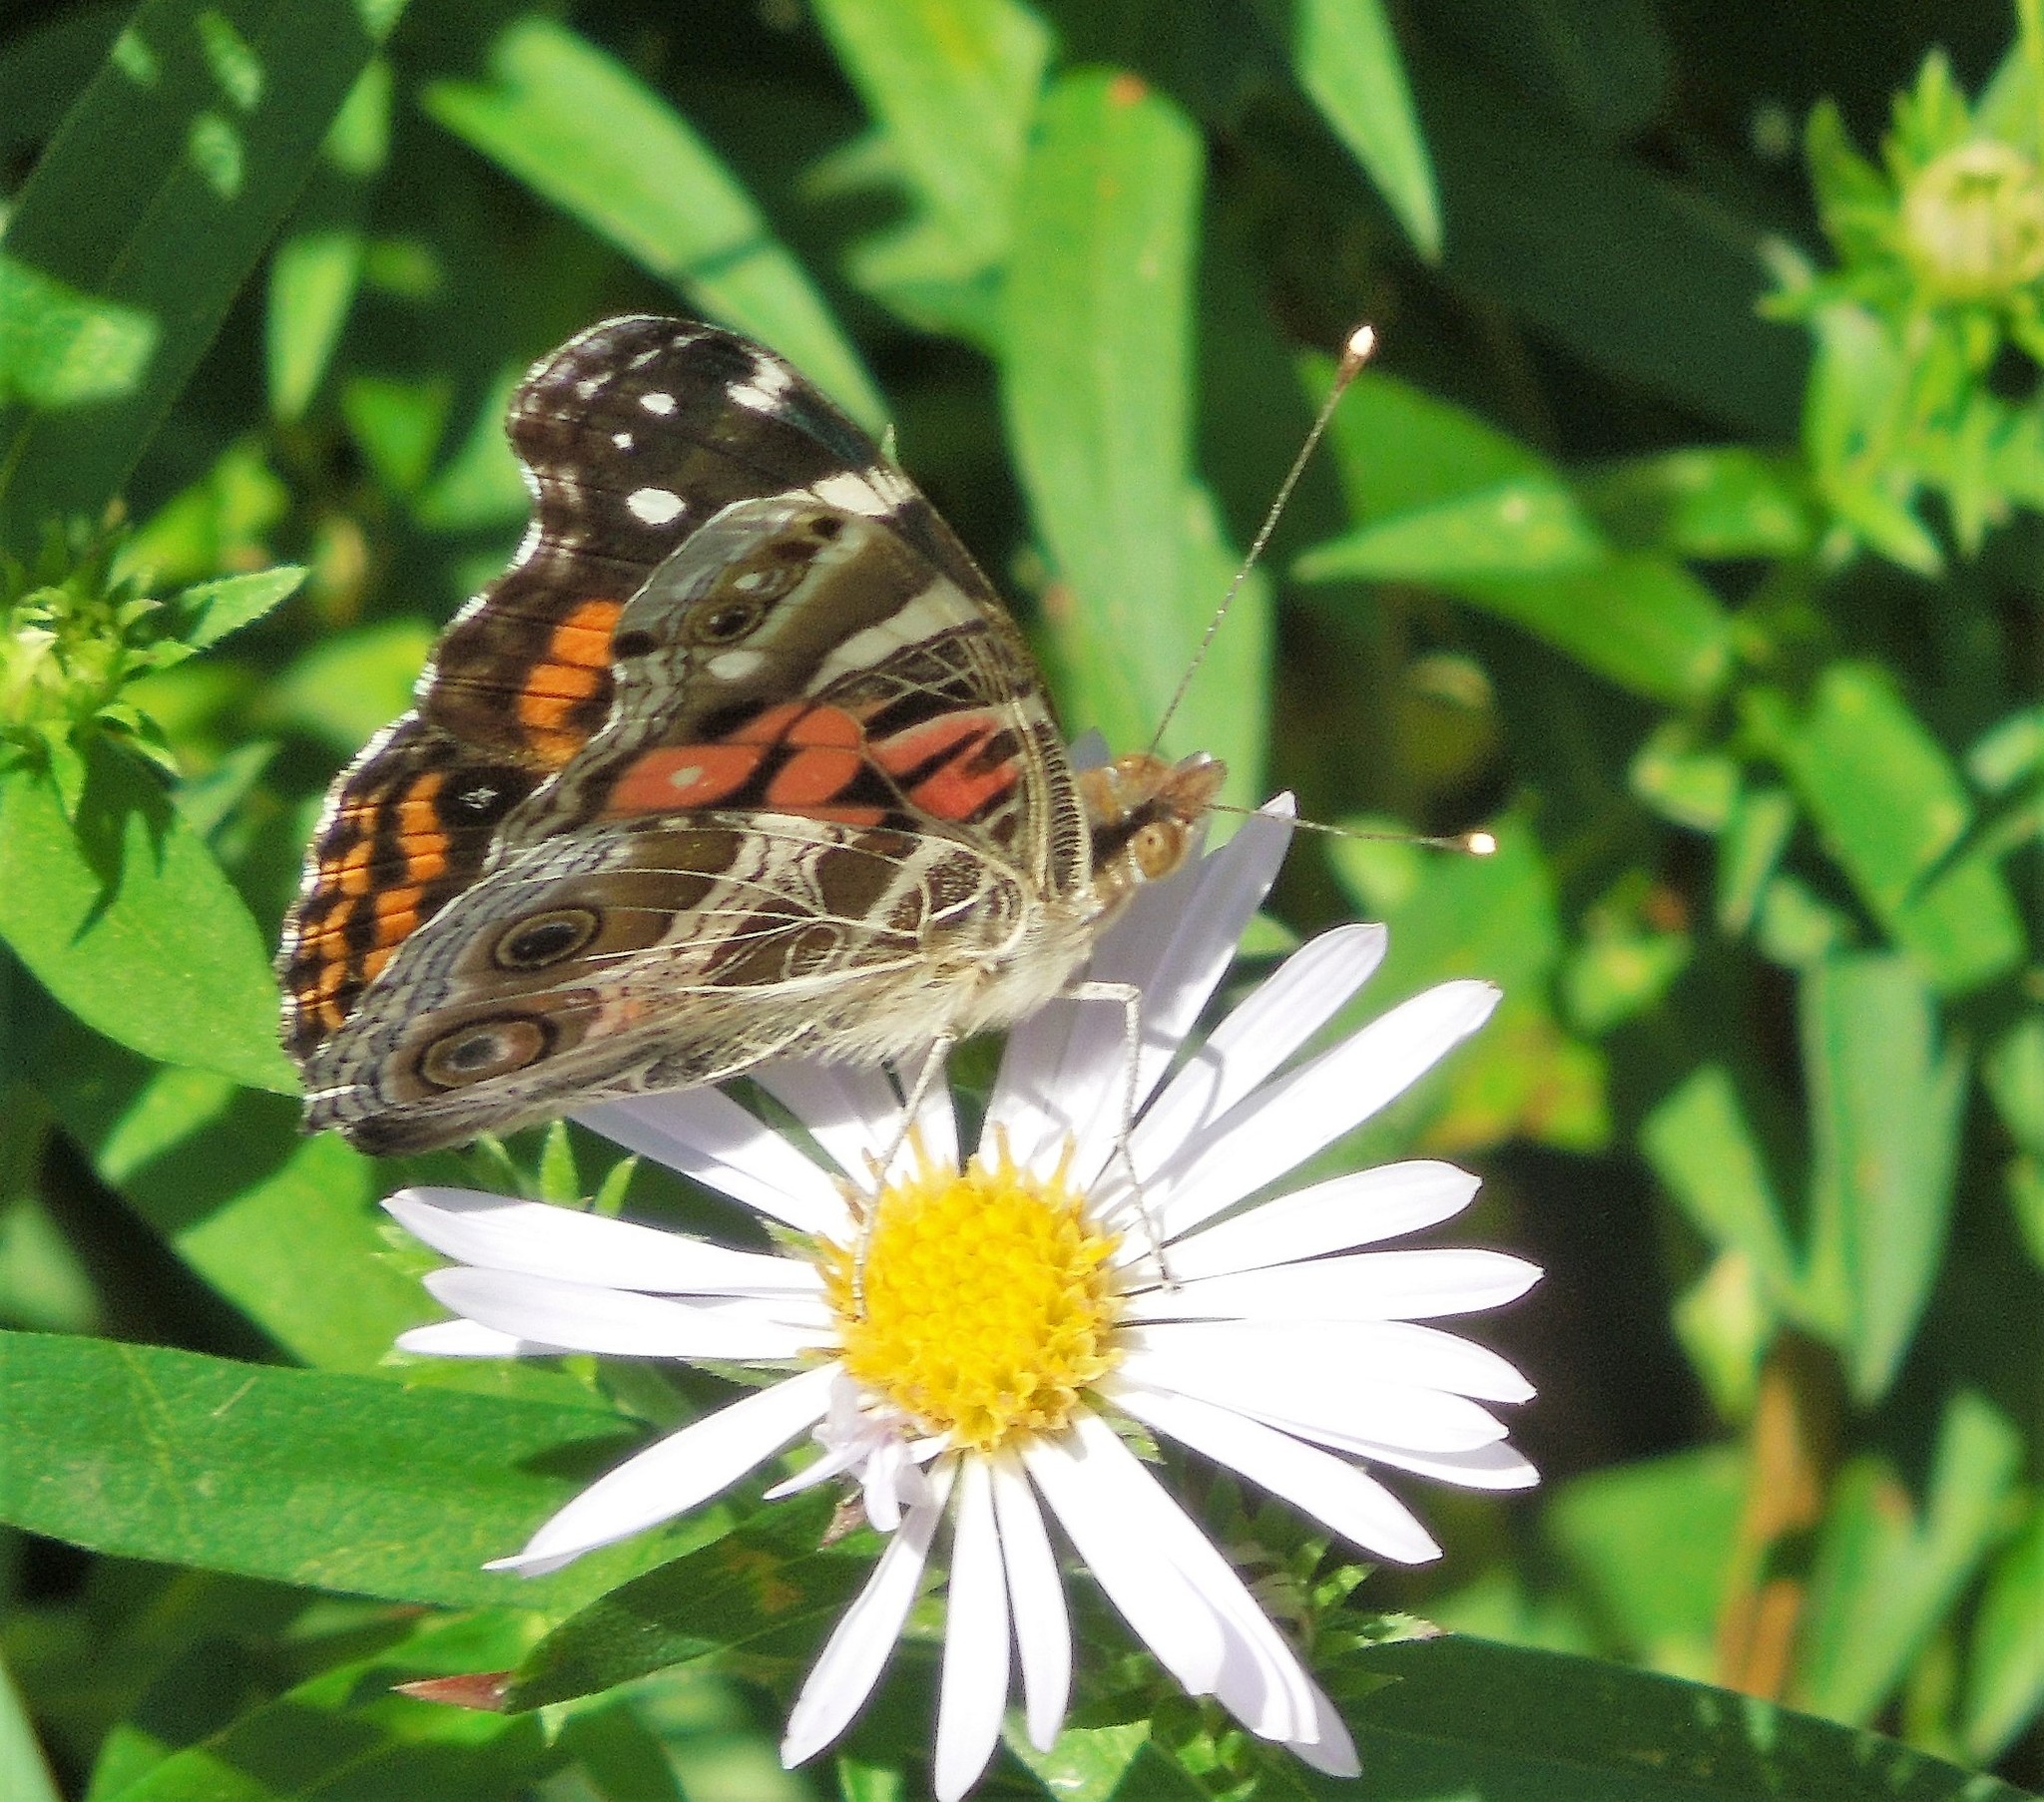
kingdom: Animalia
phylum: Arthropoda
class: Insecta
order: Lepidoptera
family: Nymphalidae
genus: Vanessa
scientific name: Vanessa virginiensis
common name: American lady
